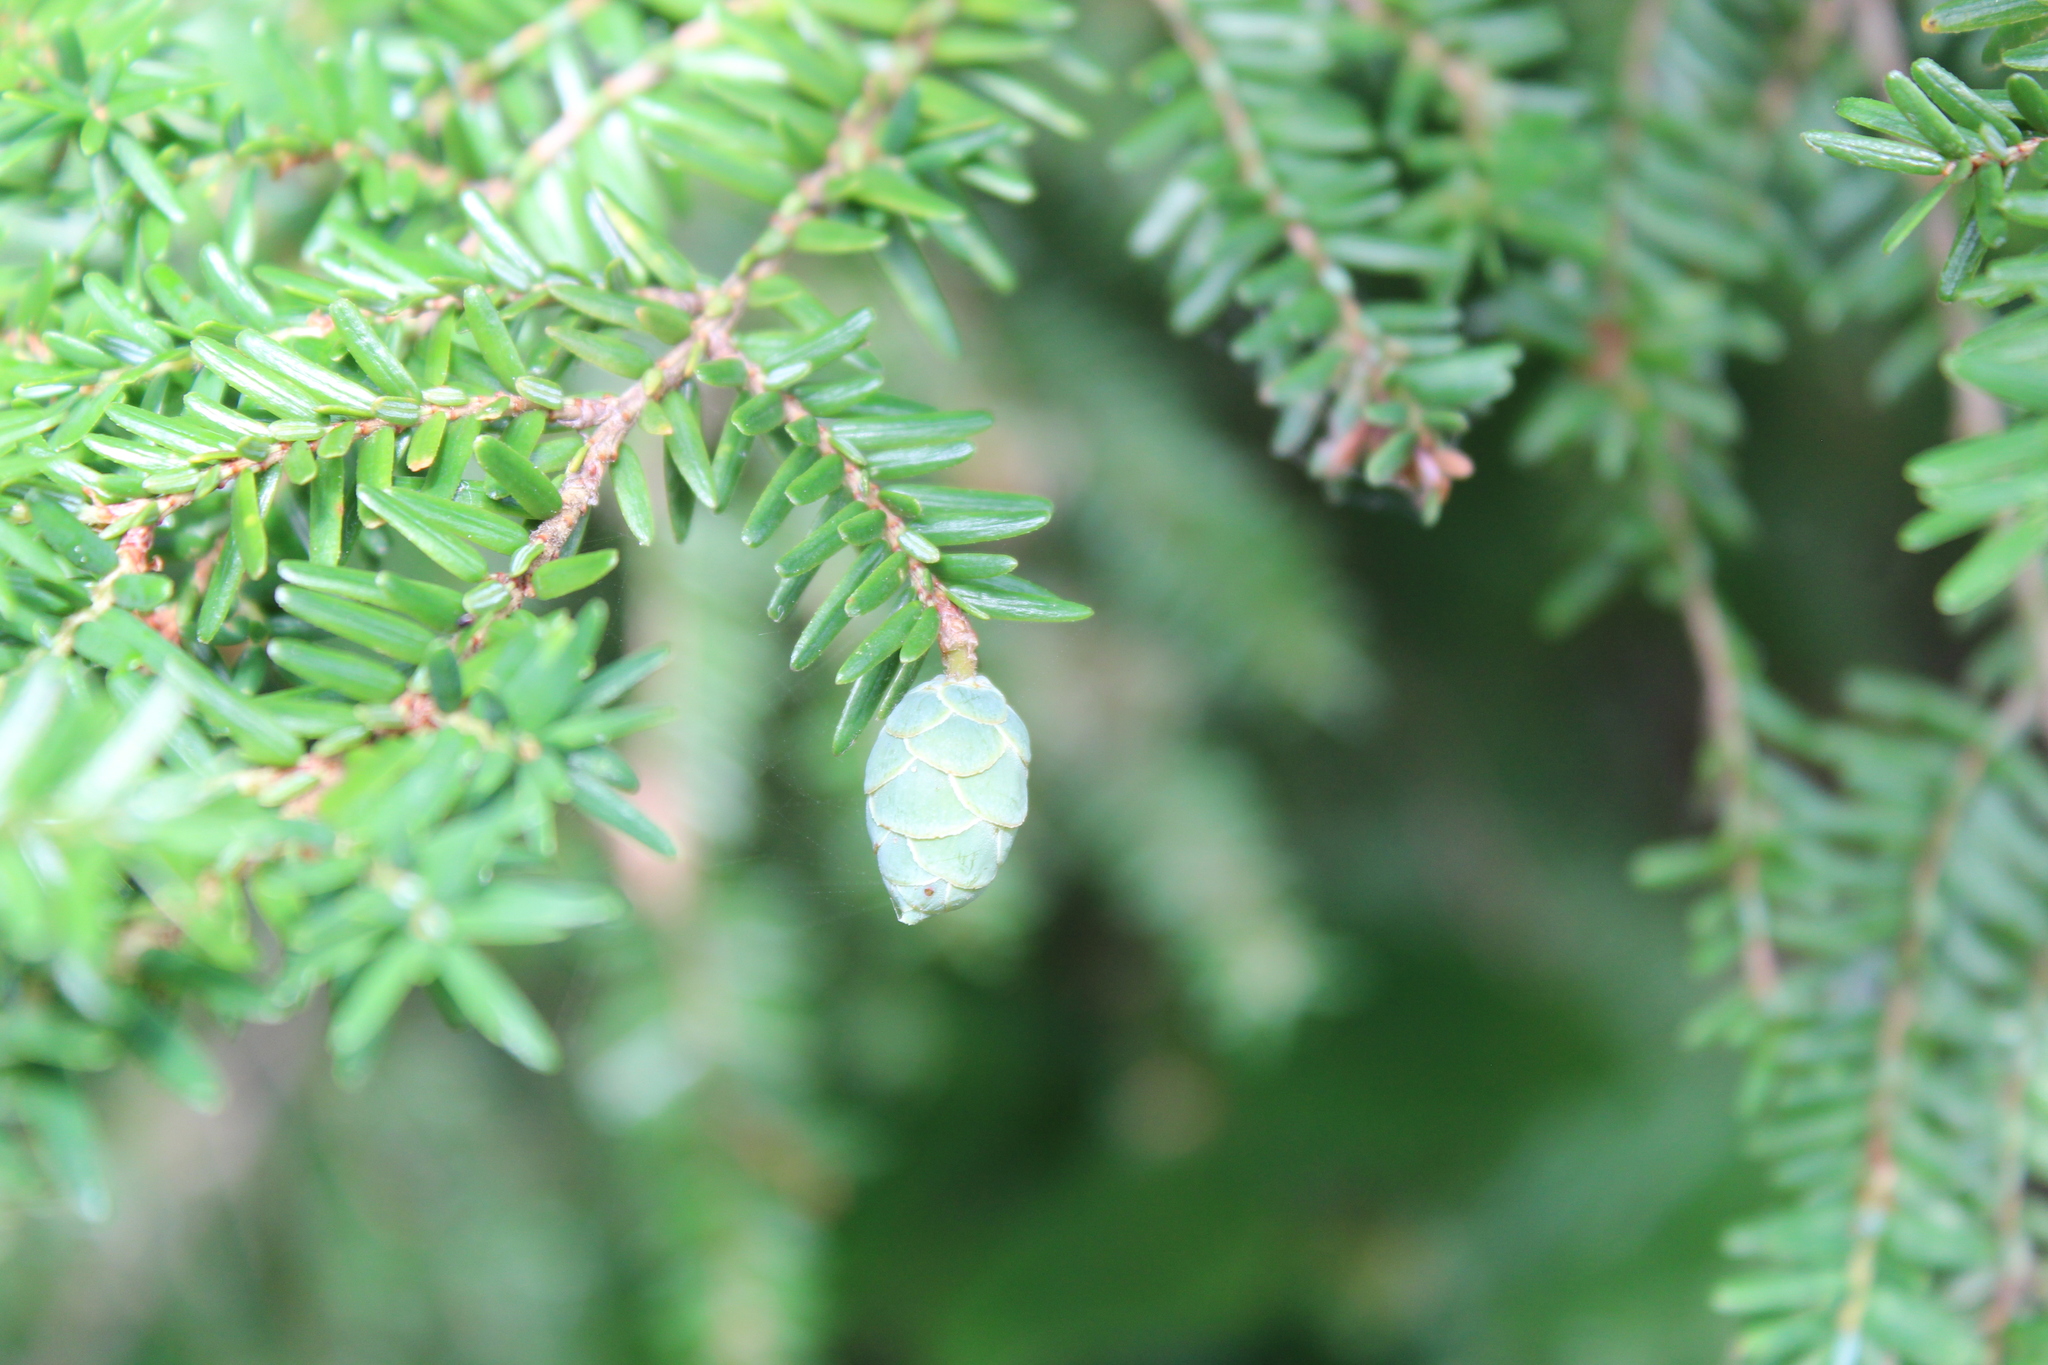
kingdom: Plantae
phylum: Tracheophyta
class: Pinopsida
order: Pinales
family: Pinaceae
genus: Tsuga
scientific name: Tsuga canadensis
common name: Eastern hemlock
